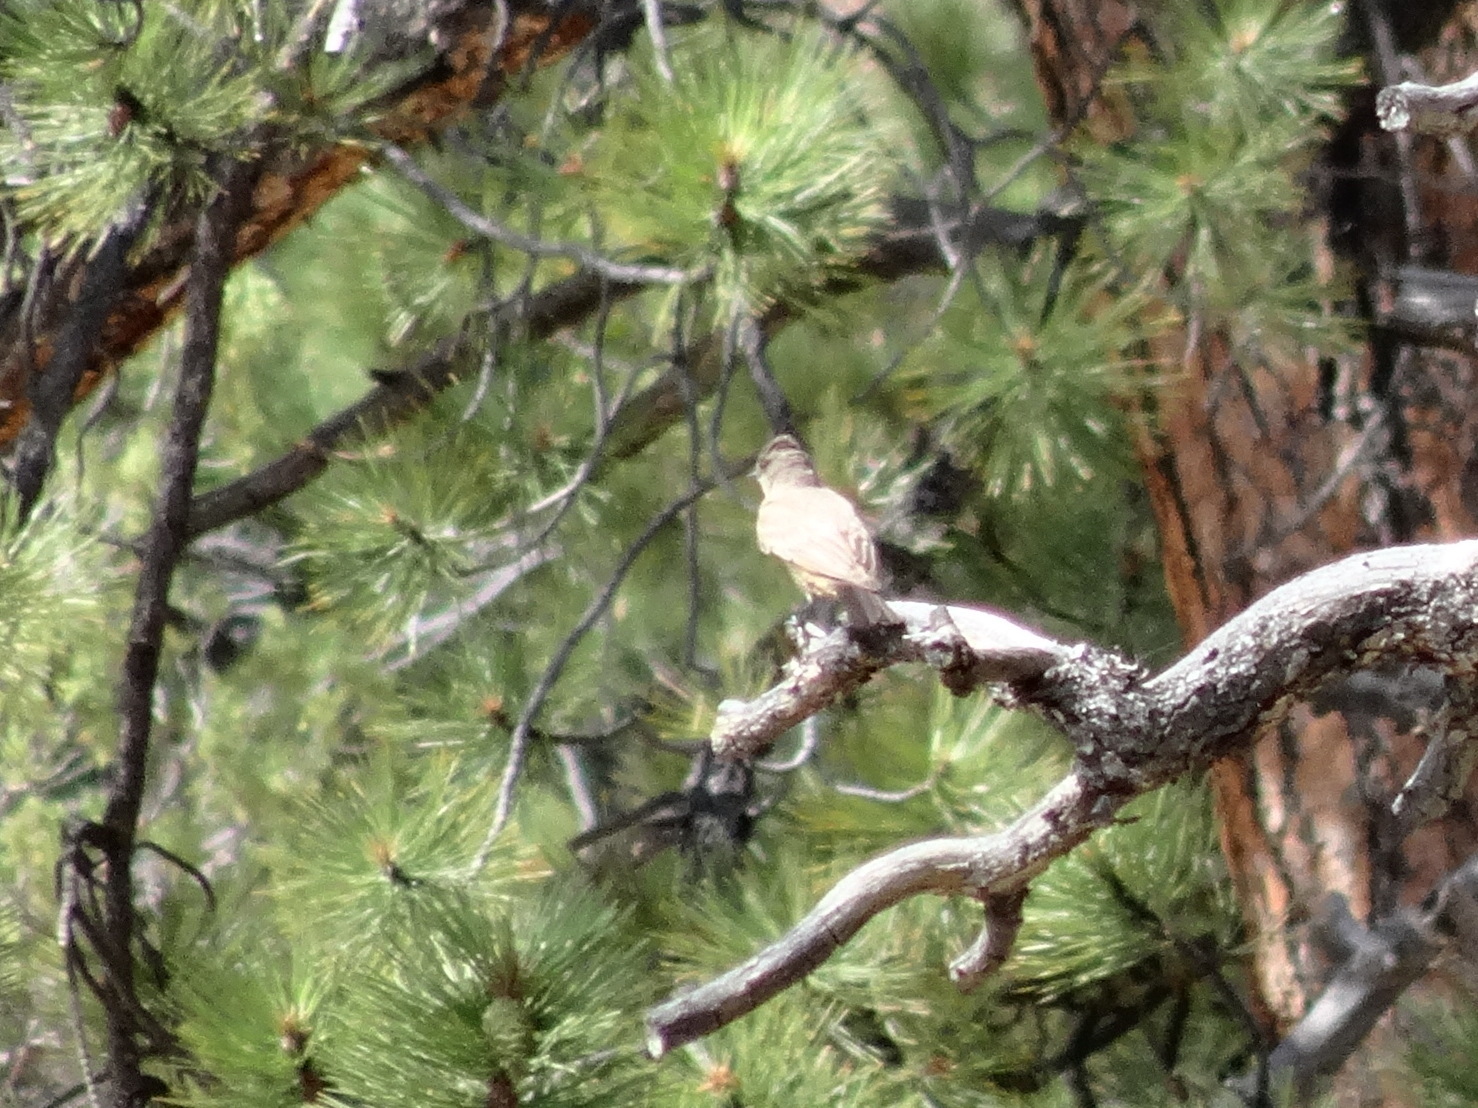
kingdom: Animalia
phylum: Chordata
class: Aves
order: Passeriformes
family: Tyrannidae
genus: Sayornis
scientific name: Sayornis saya
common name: Say's phoebe
